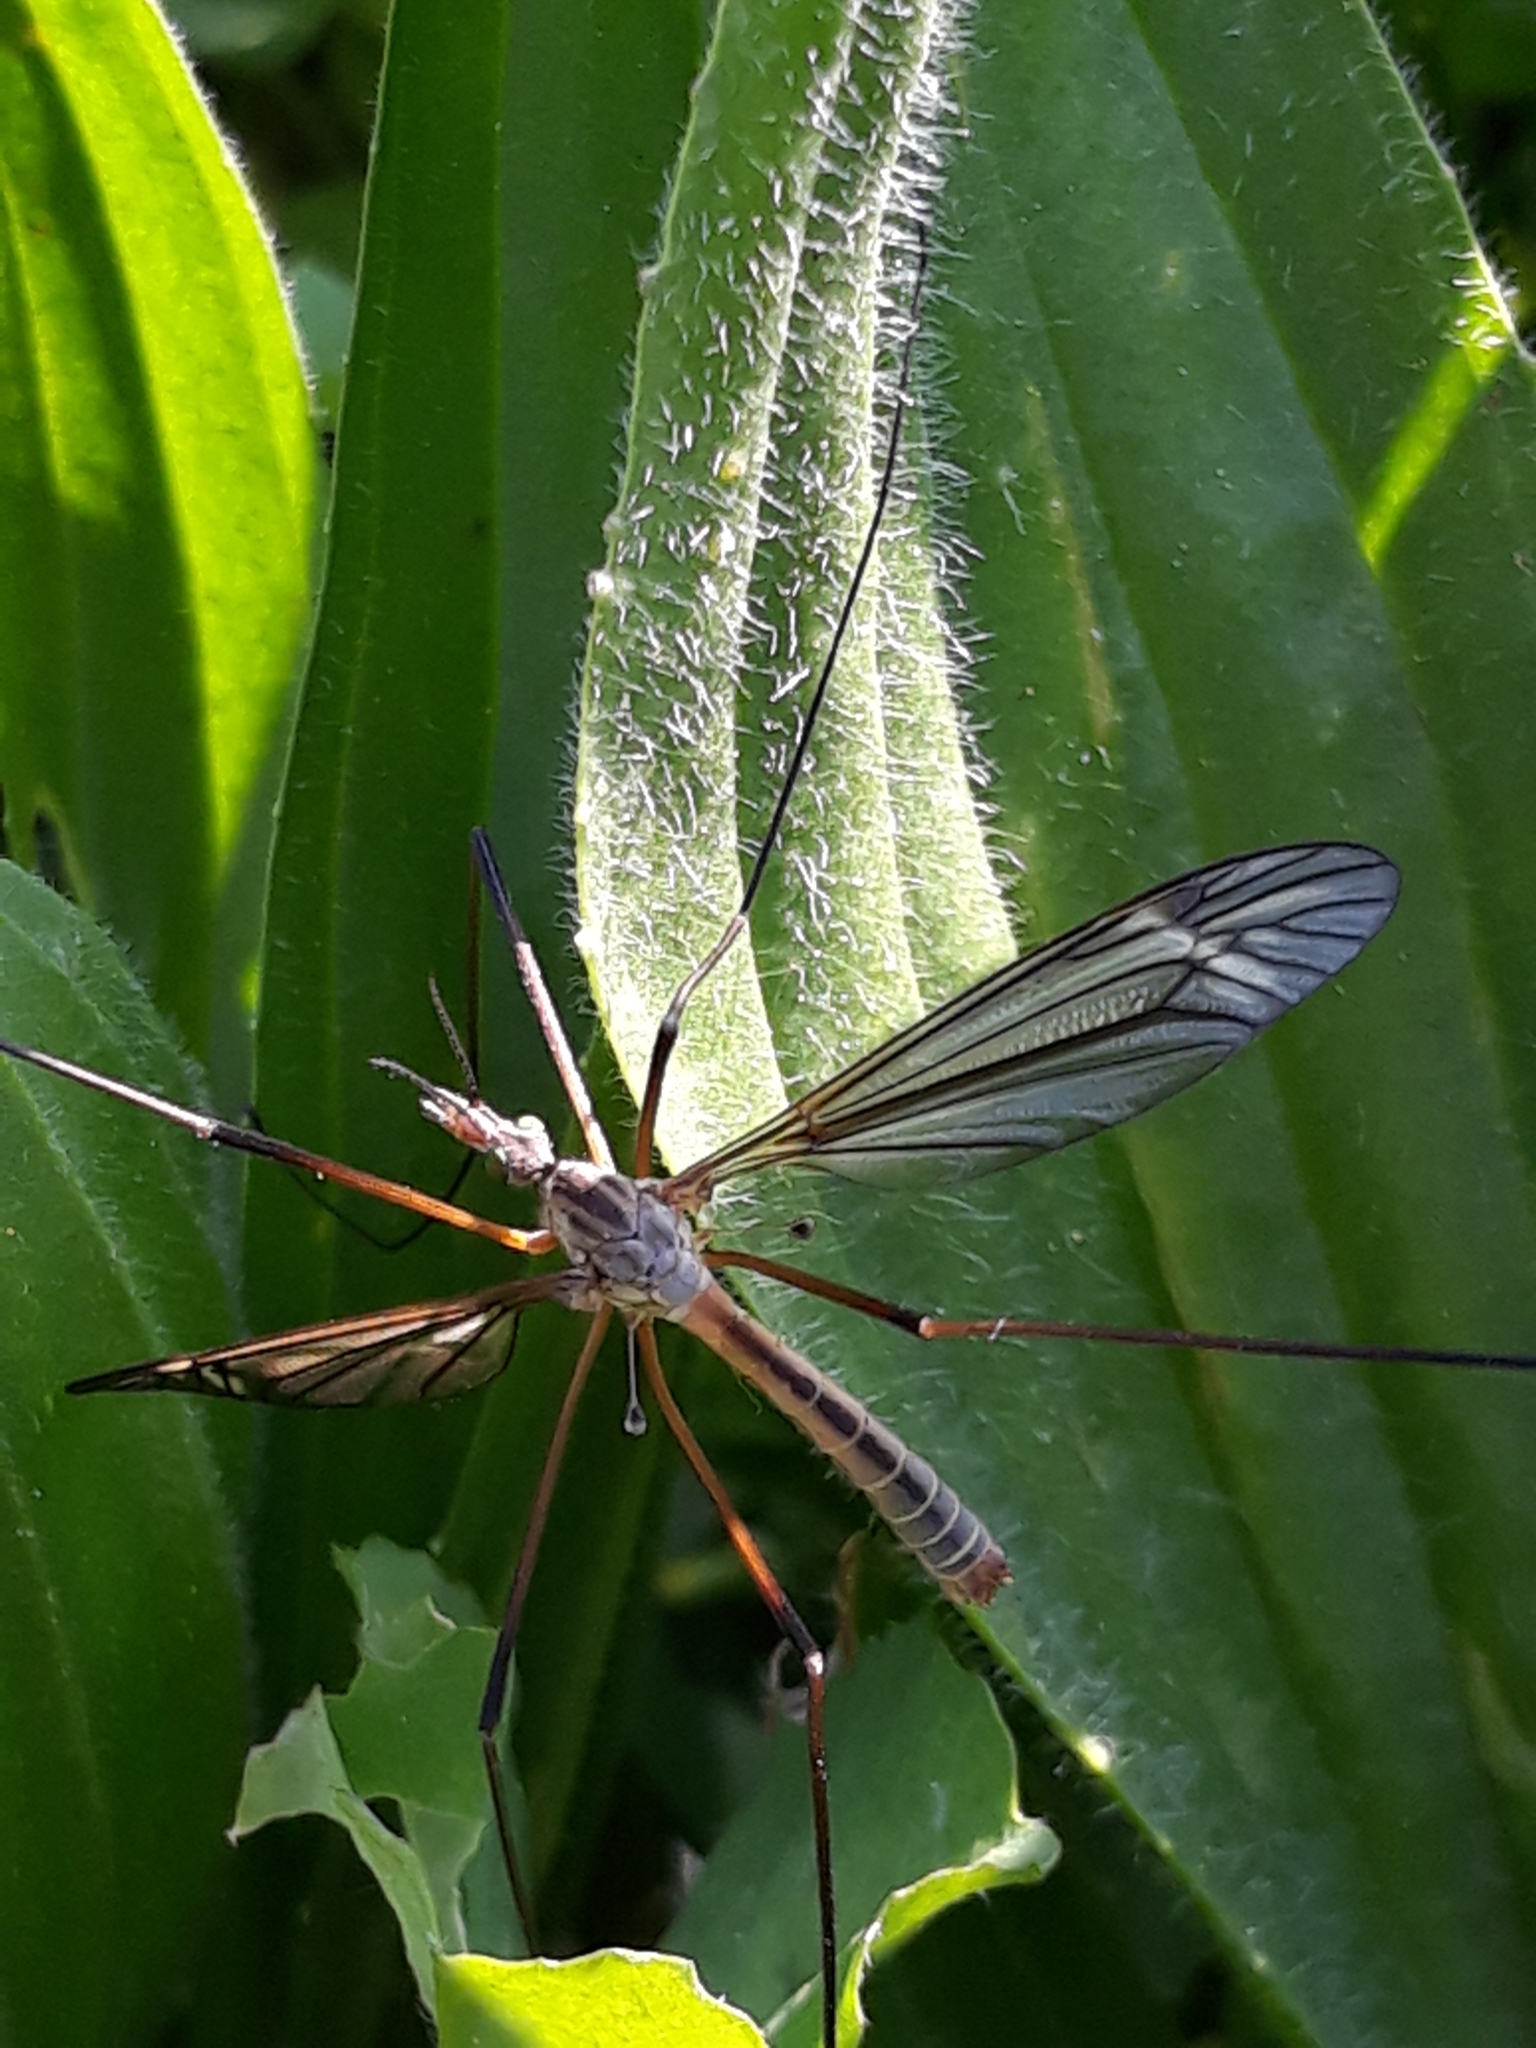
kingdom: Animalia
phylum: Arthropoda
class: Insecta
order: Diptera
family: Tipulidae
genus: Tipula
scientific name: Tipula vernalis
